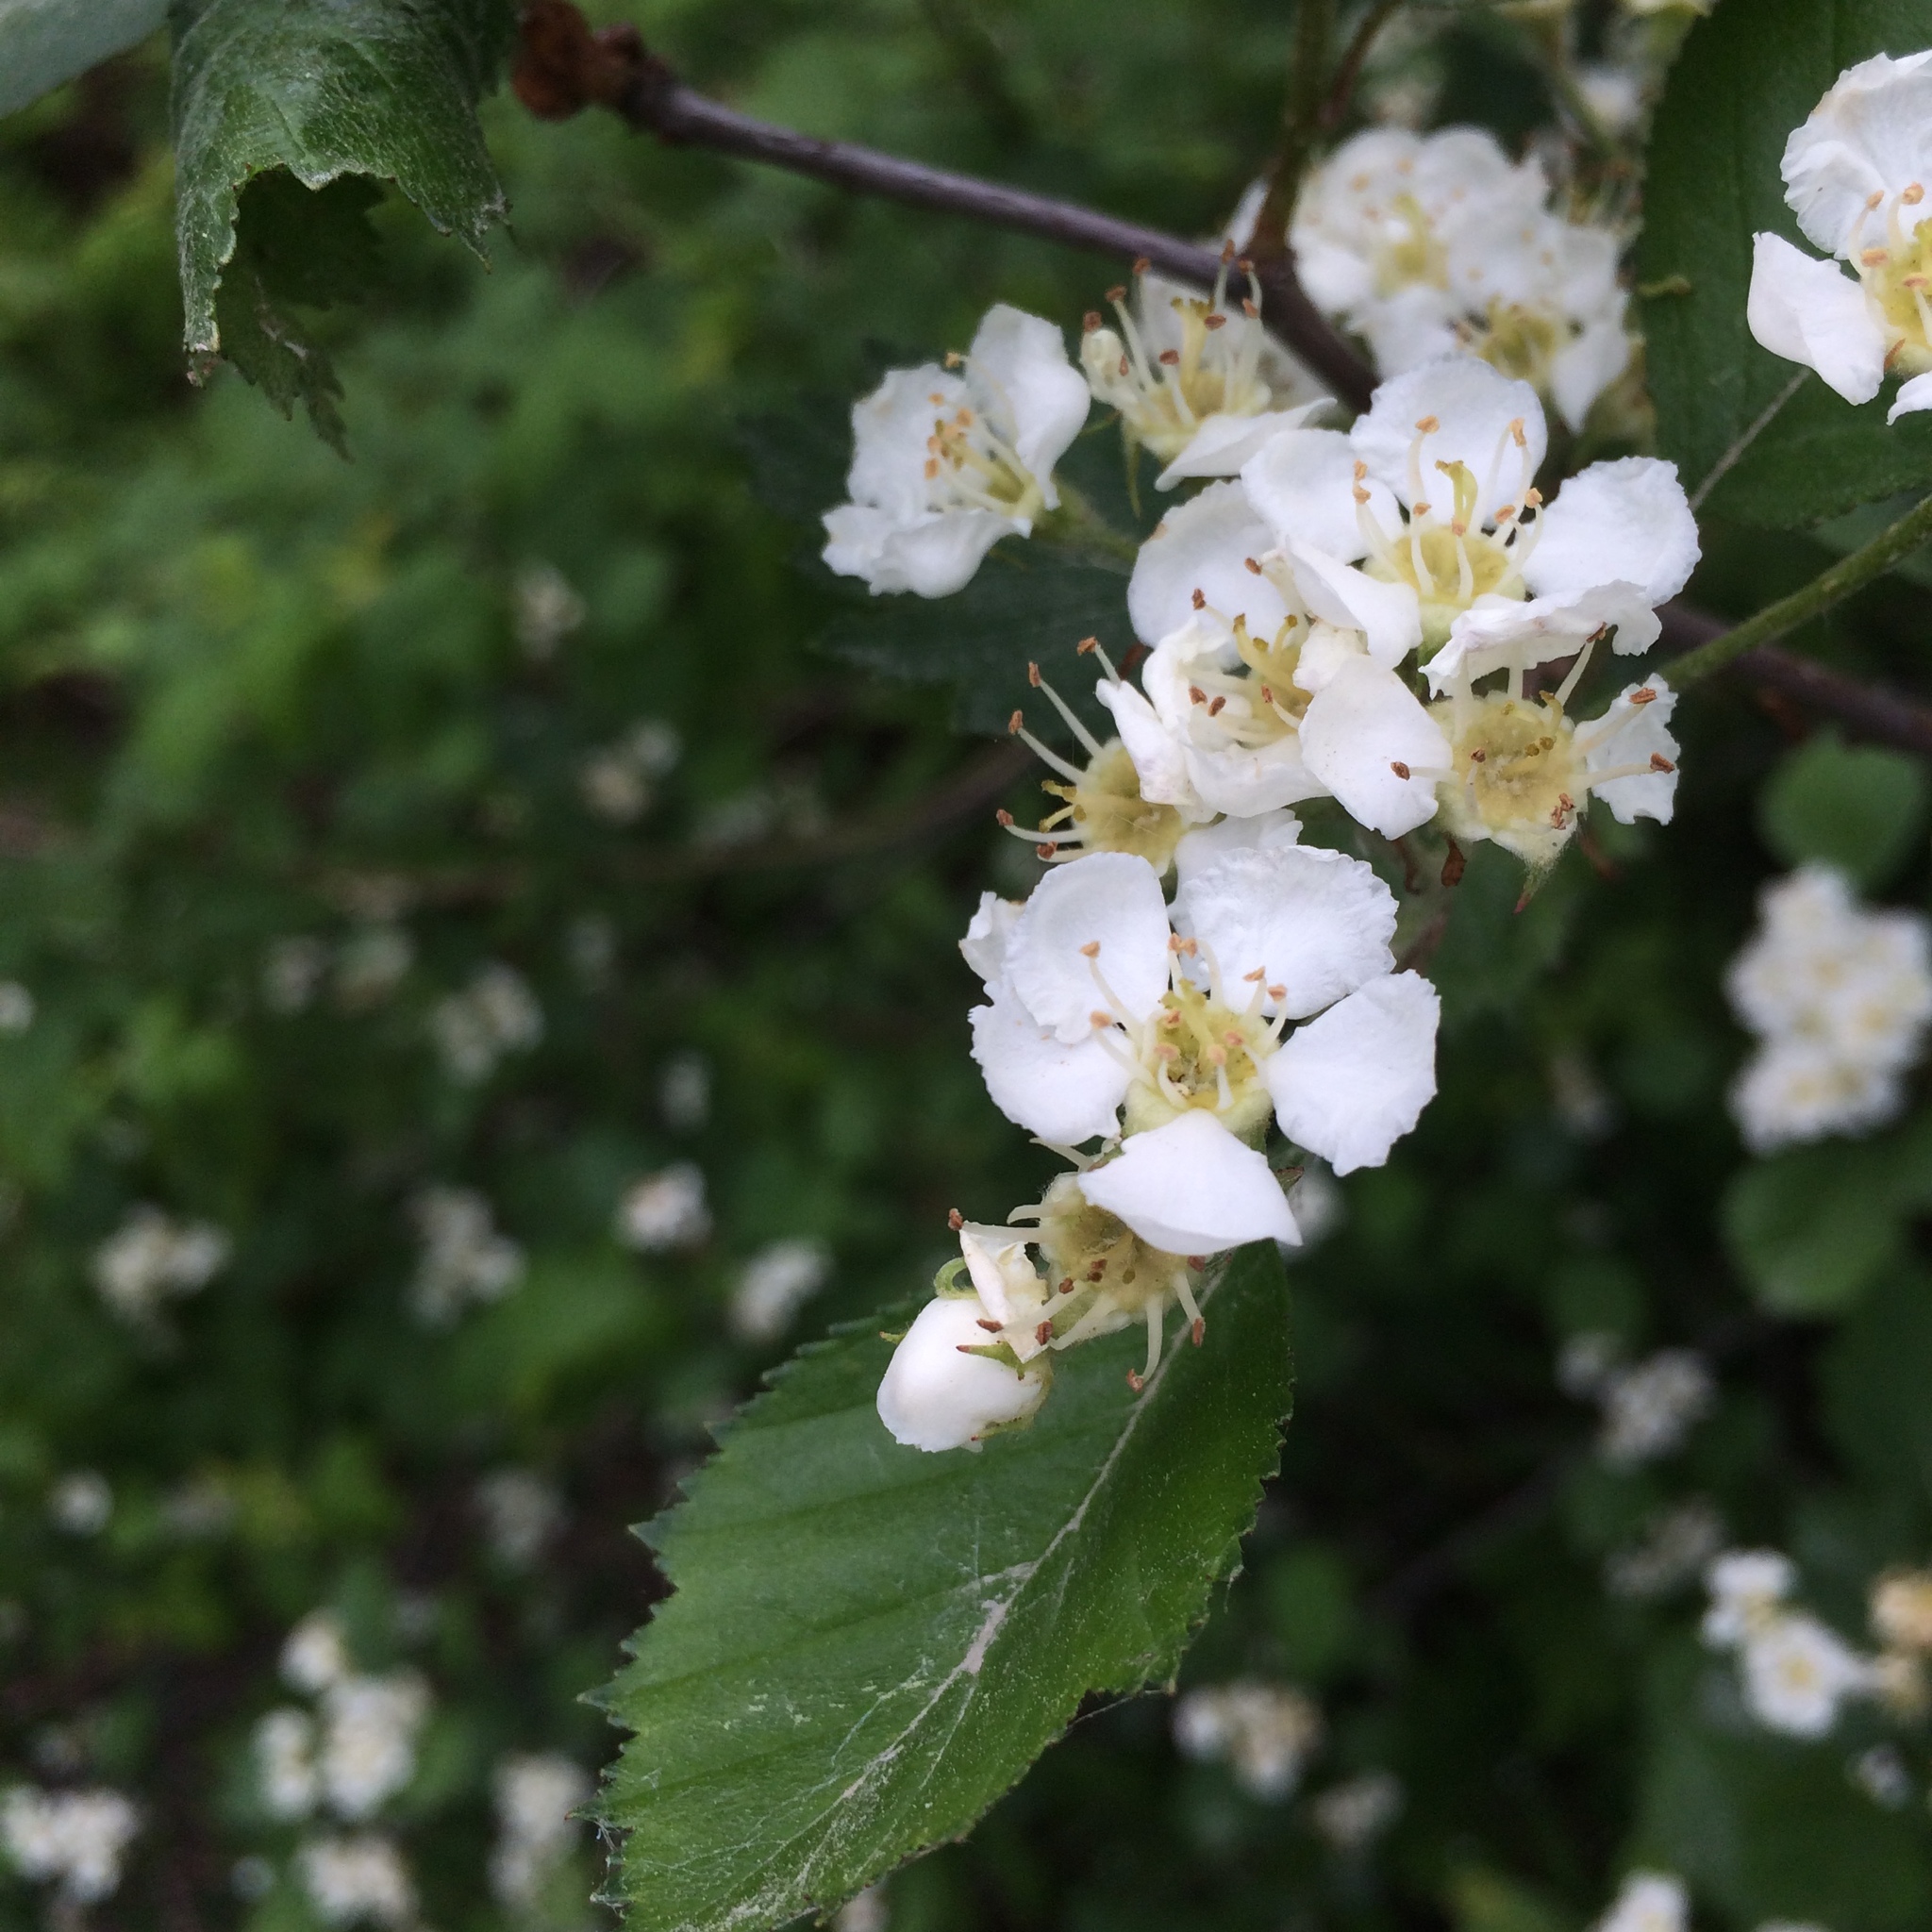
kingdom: Plantae
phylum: Tracheophyta
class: Magnoliopsida
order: Rosales
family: Rosaceae
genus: Crataegus
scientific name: Crataegus chrysocarpa
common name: Fire-berry hawthorn
